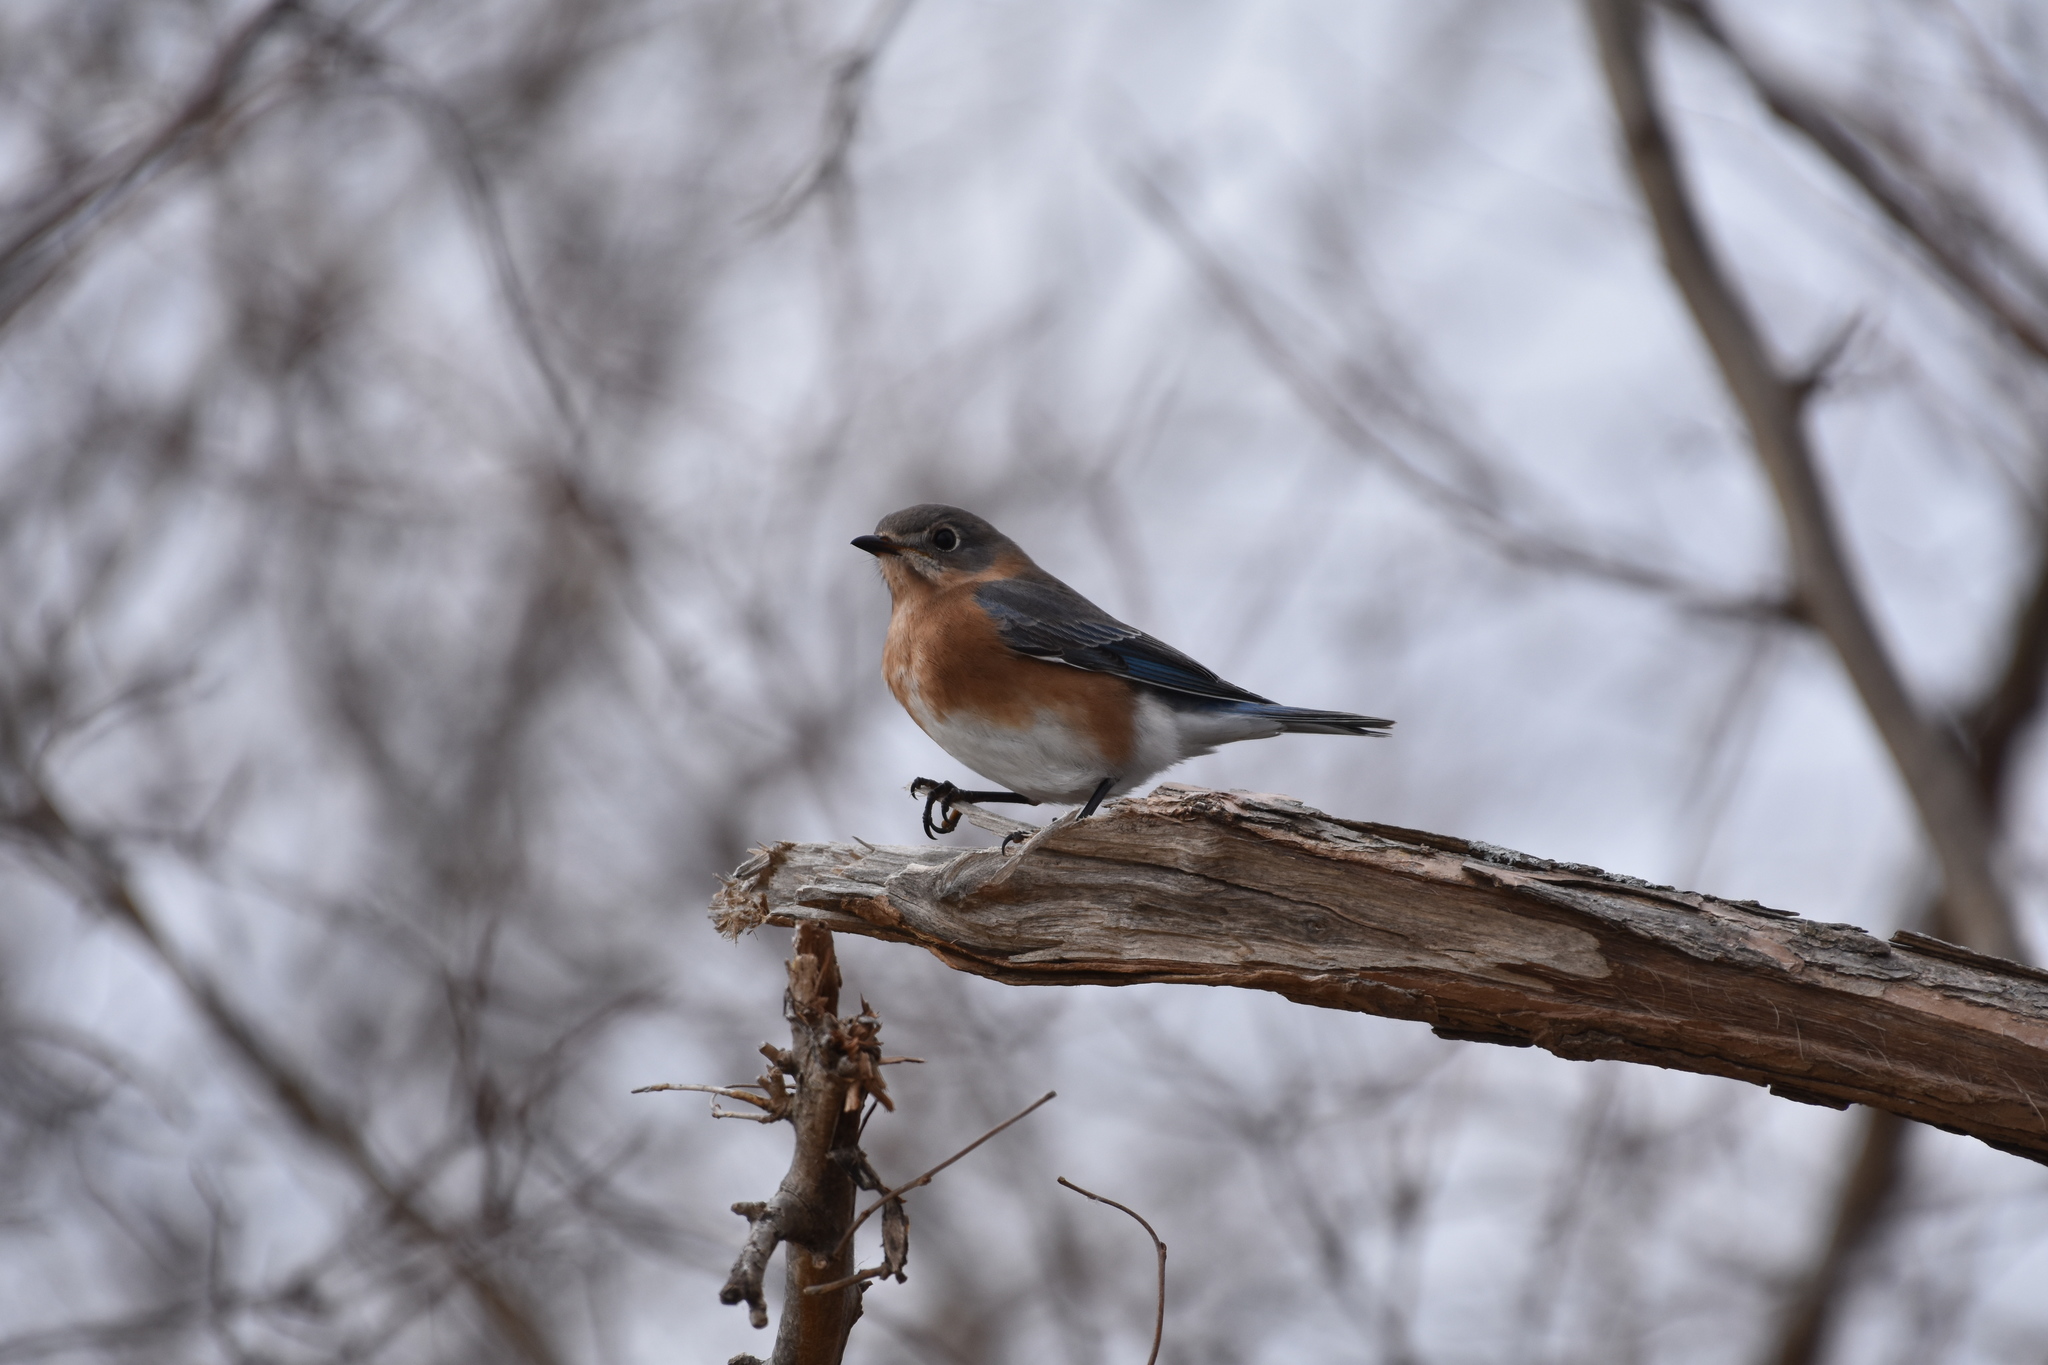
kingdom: Animalia
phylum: Chordata
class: Aves
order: Passeriformes
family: Turdidae
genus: Sialia
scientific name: Sialia sialis
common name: Eastern bluebird
